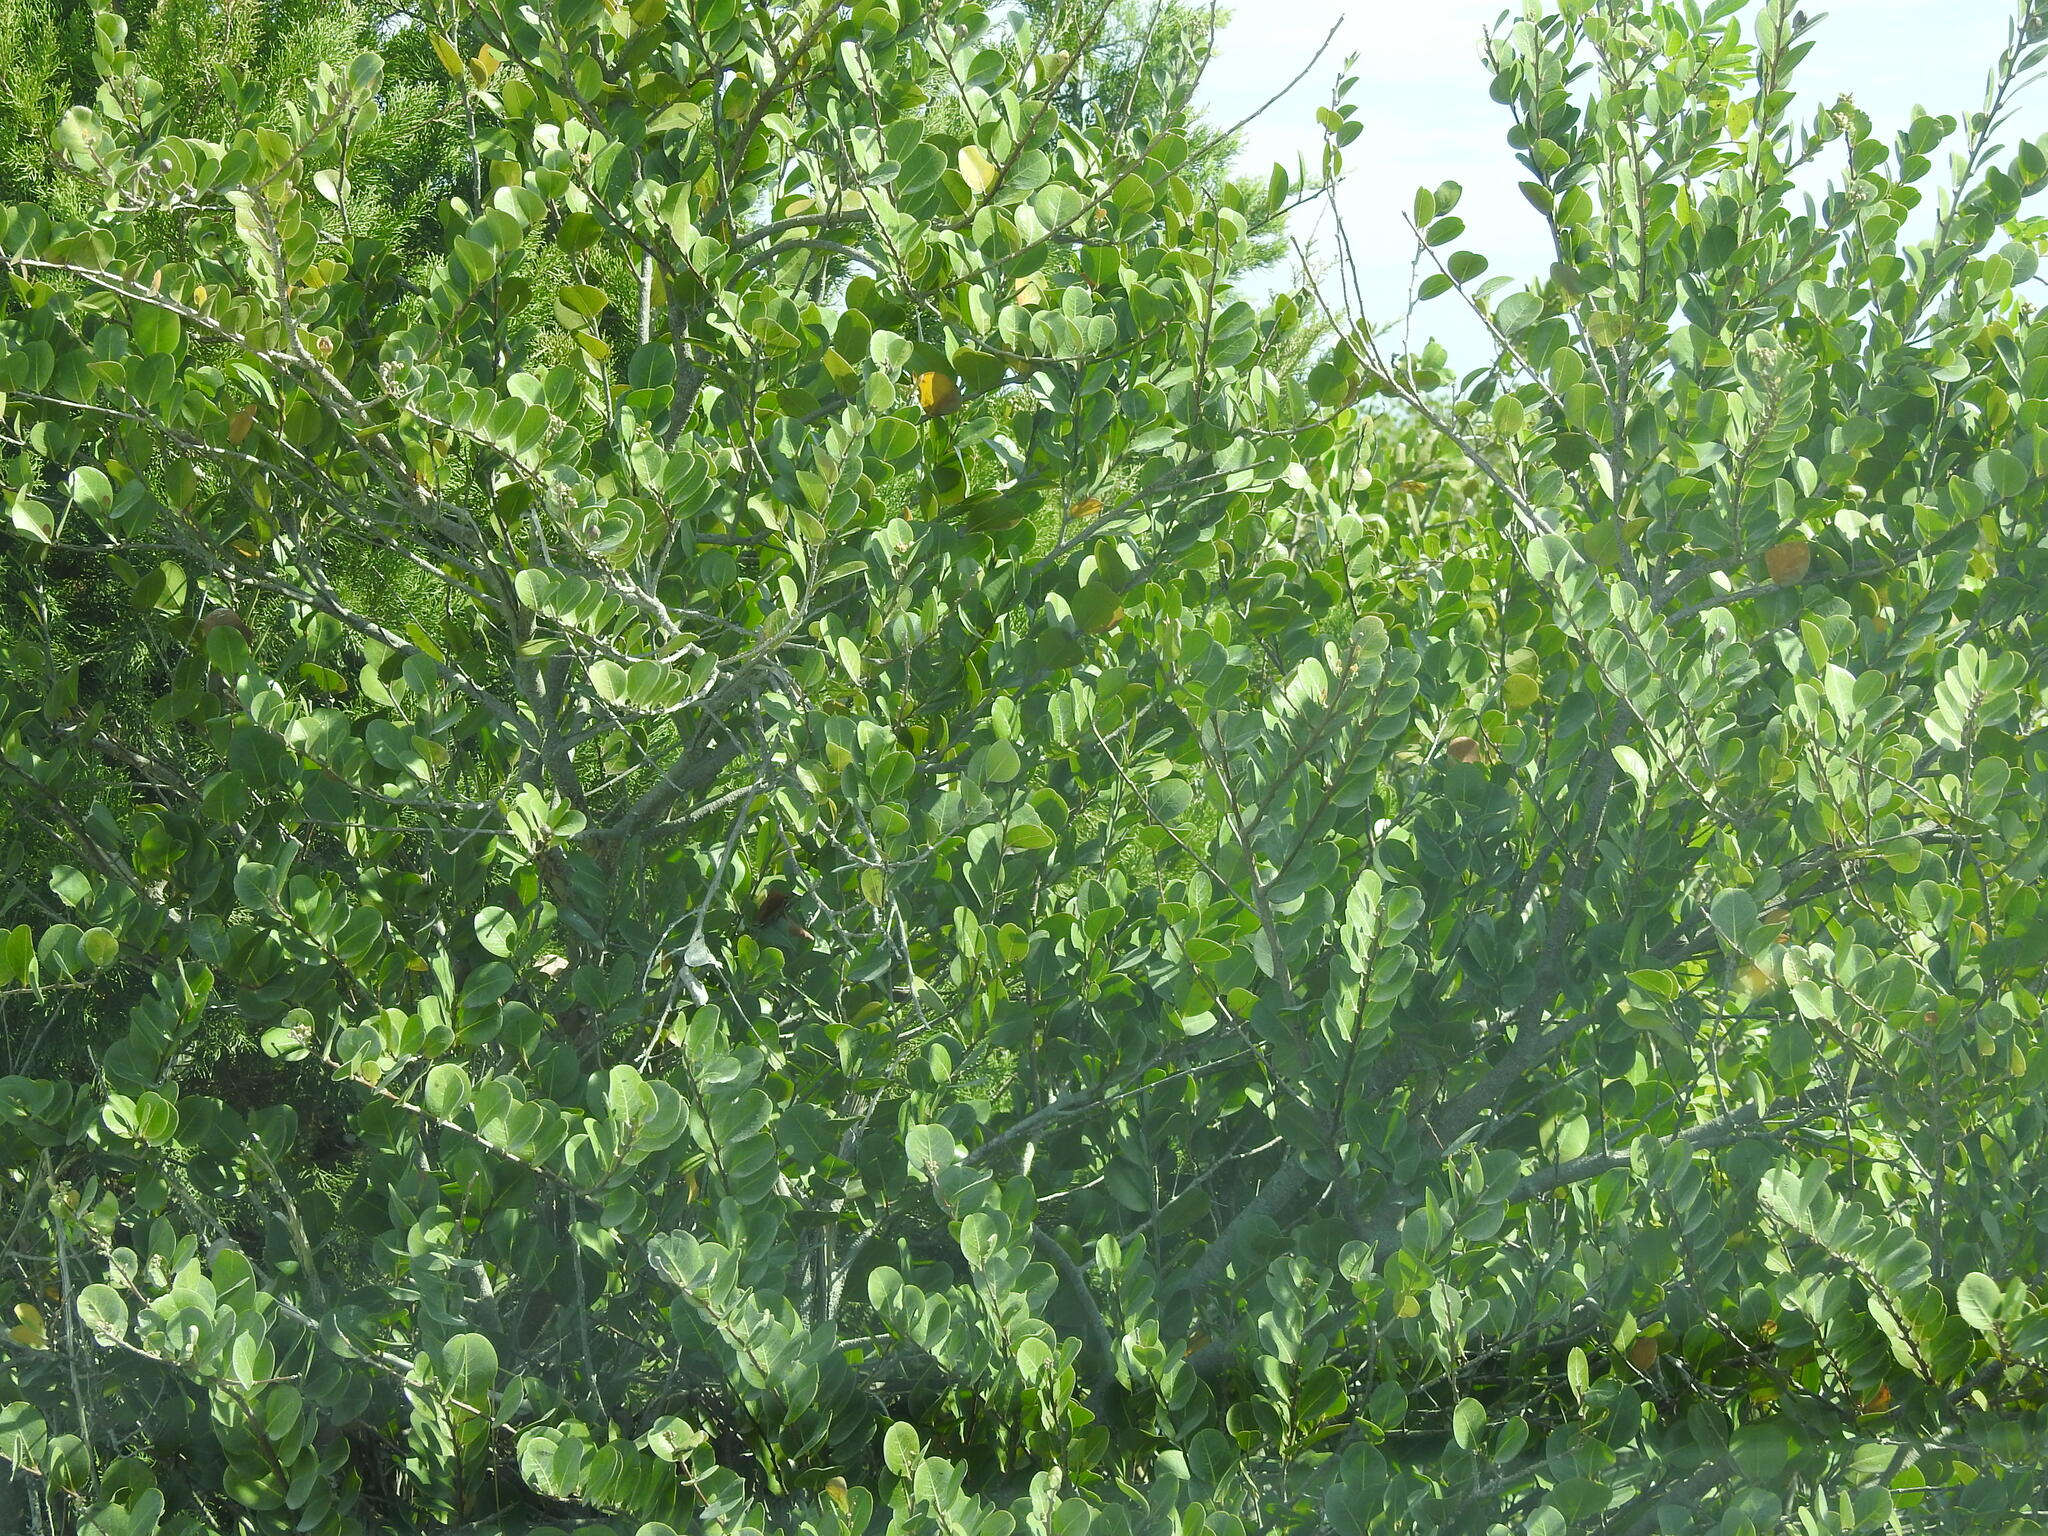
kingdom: Plantae
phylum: Tracheophyta
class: Magnoliopsida
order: Malpighiales
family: Chrysobalanaceae
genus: Chrysobalanus
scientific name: Chrysobalanus icaco
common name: Coco plum
